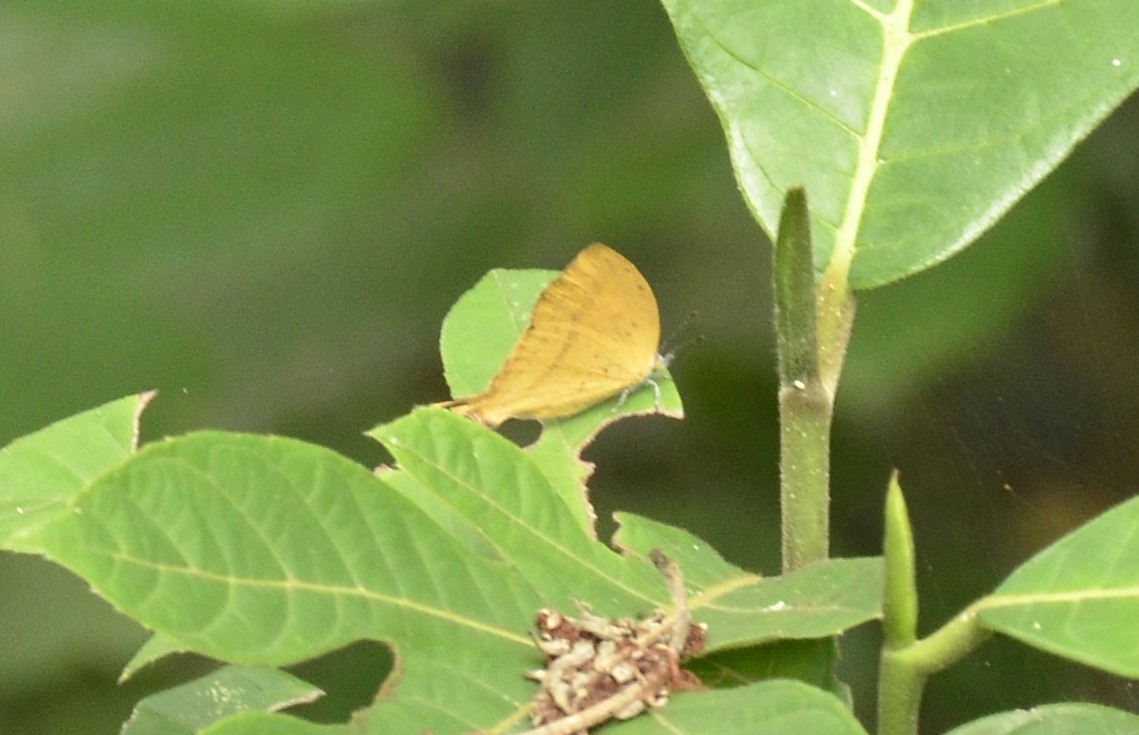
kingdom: Animalia
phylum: Arthropoda
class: Insecta
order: Lepidoptera
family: Lycaenidae
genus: Loxura
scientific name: Loxura atymnus
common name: Common yamfly
